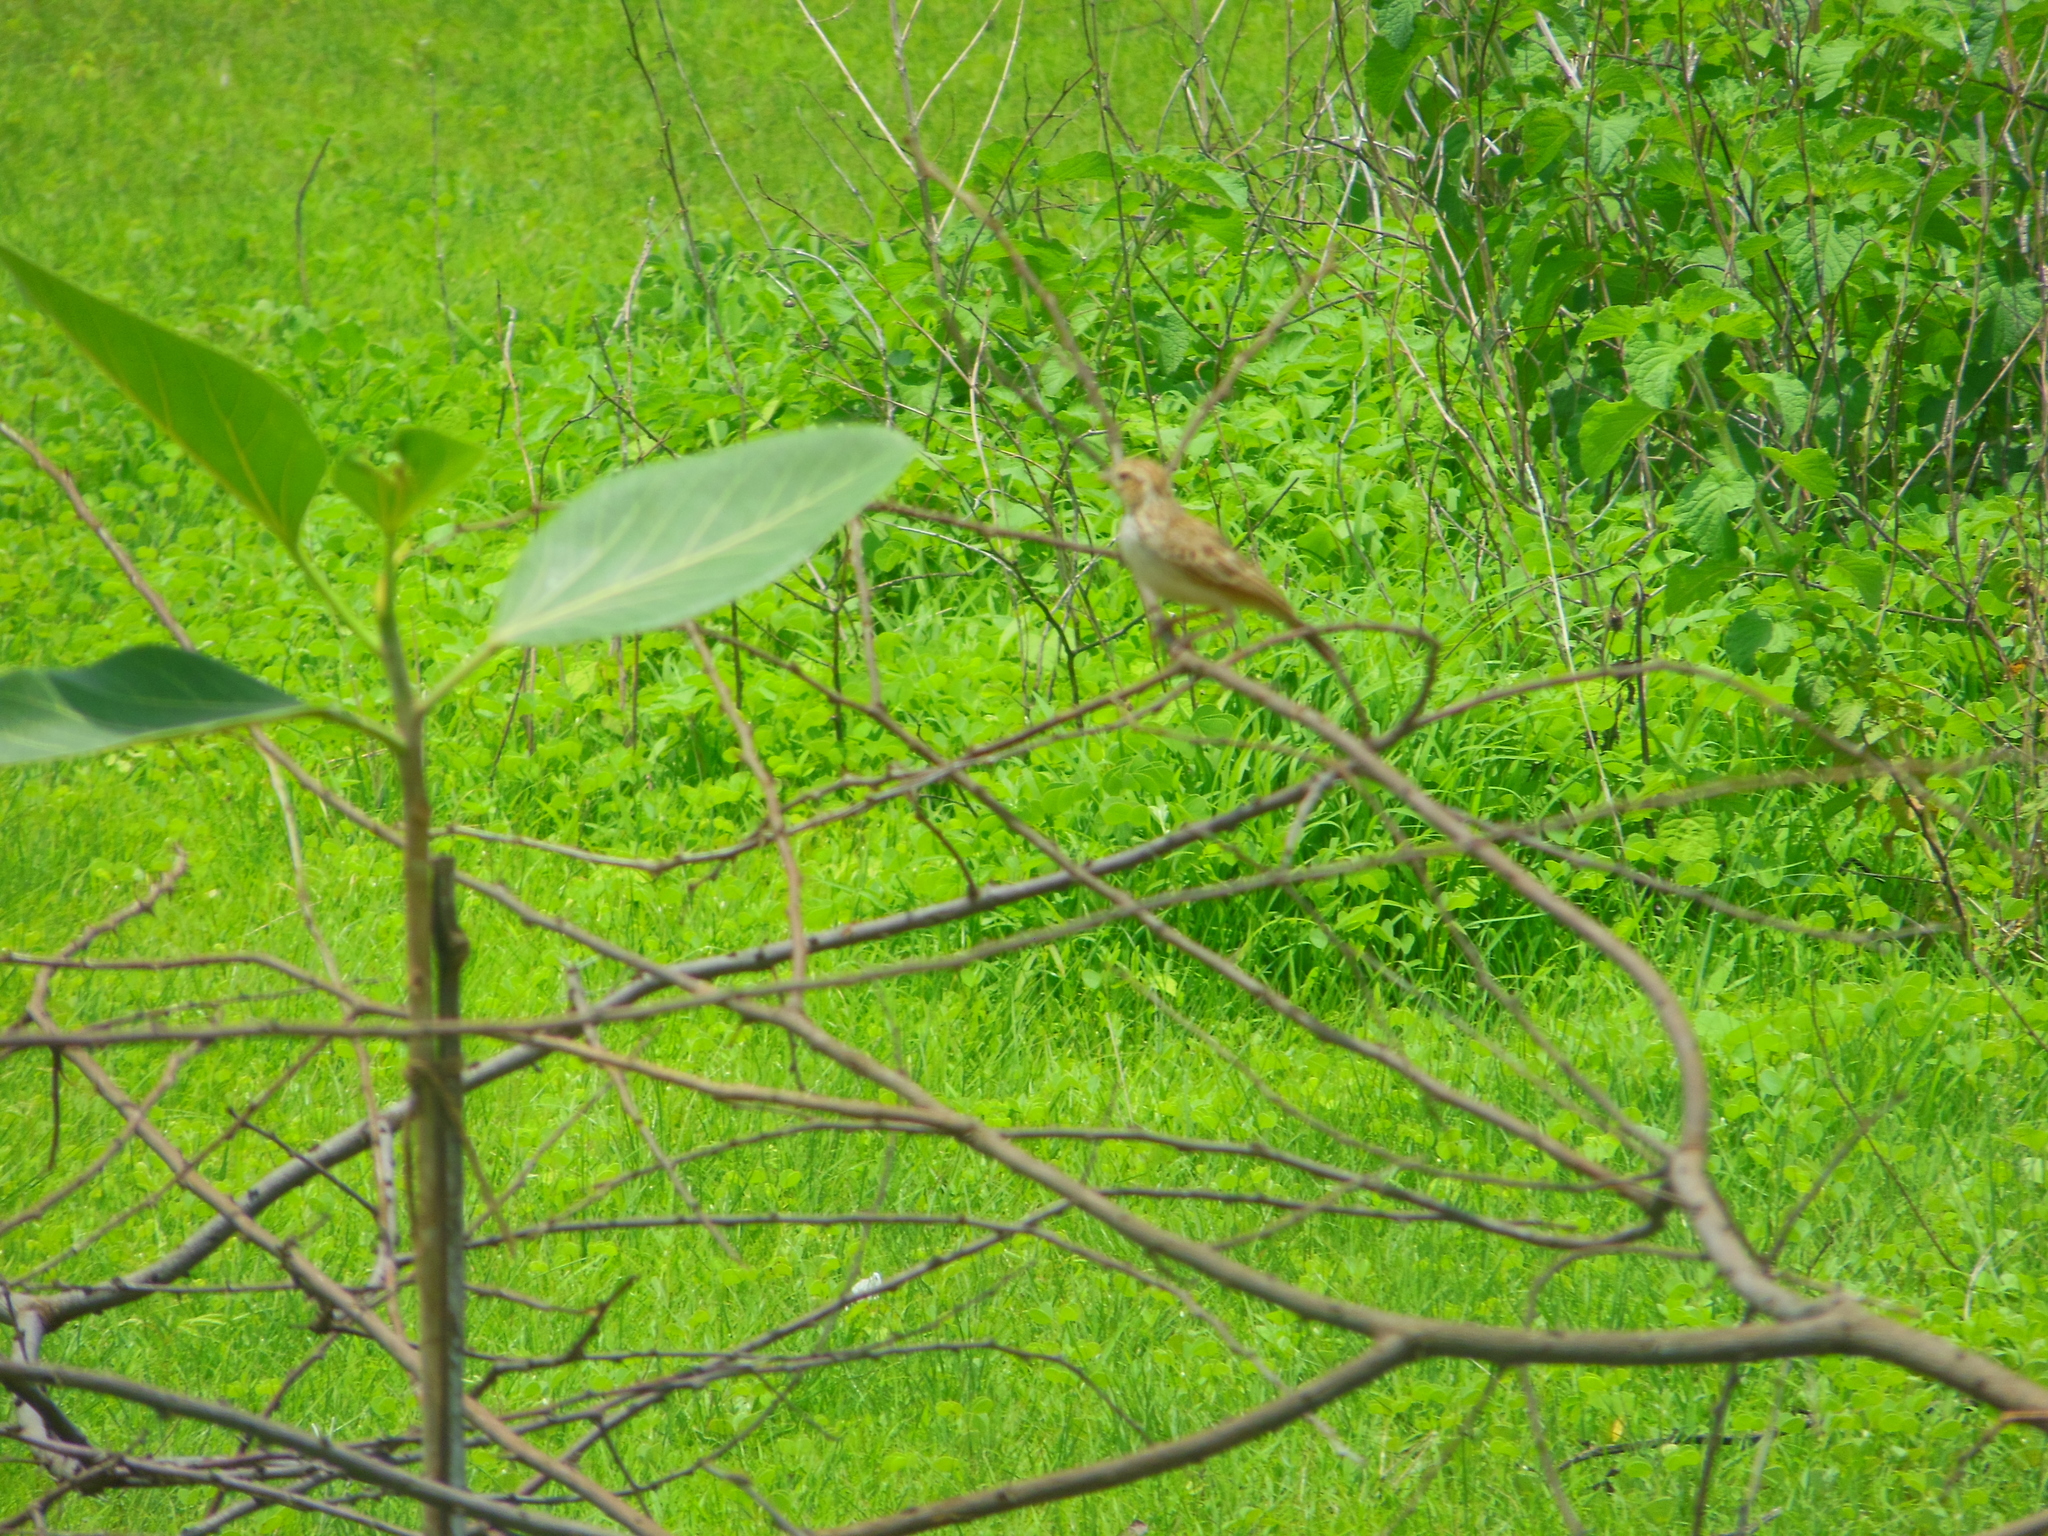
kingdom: Animalia
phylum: Chordata
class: Aves
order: Passeriformes
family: Alaudidae
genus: Mirafra
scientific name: Mirafra erythroptera
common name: Indian bush lark
